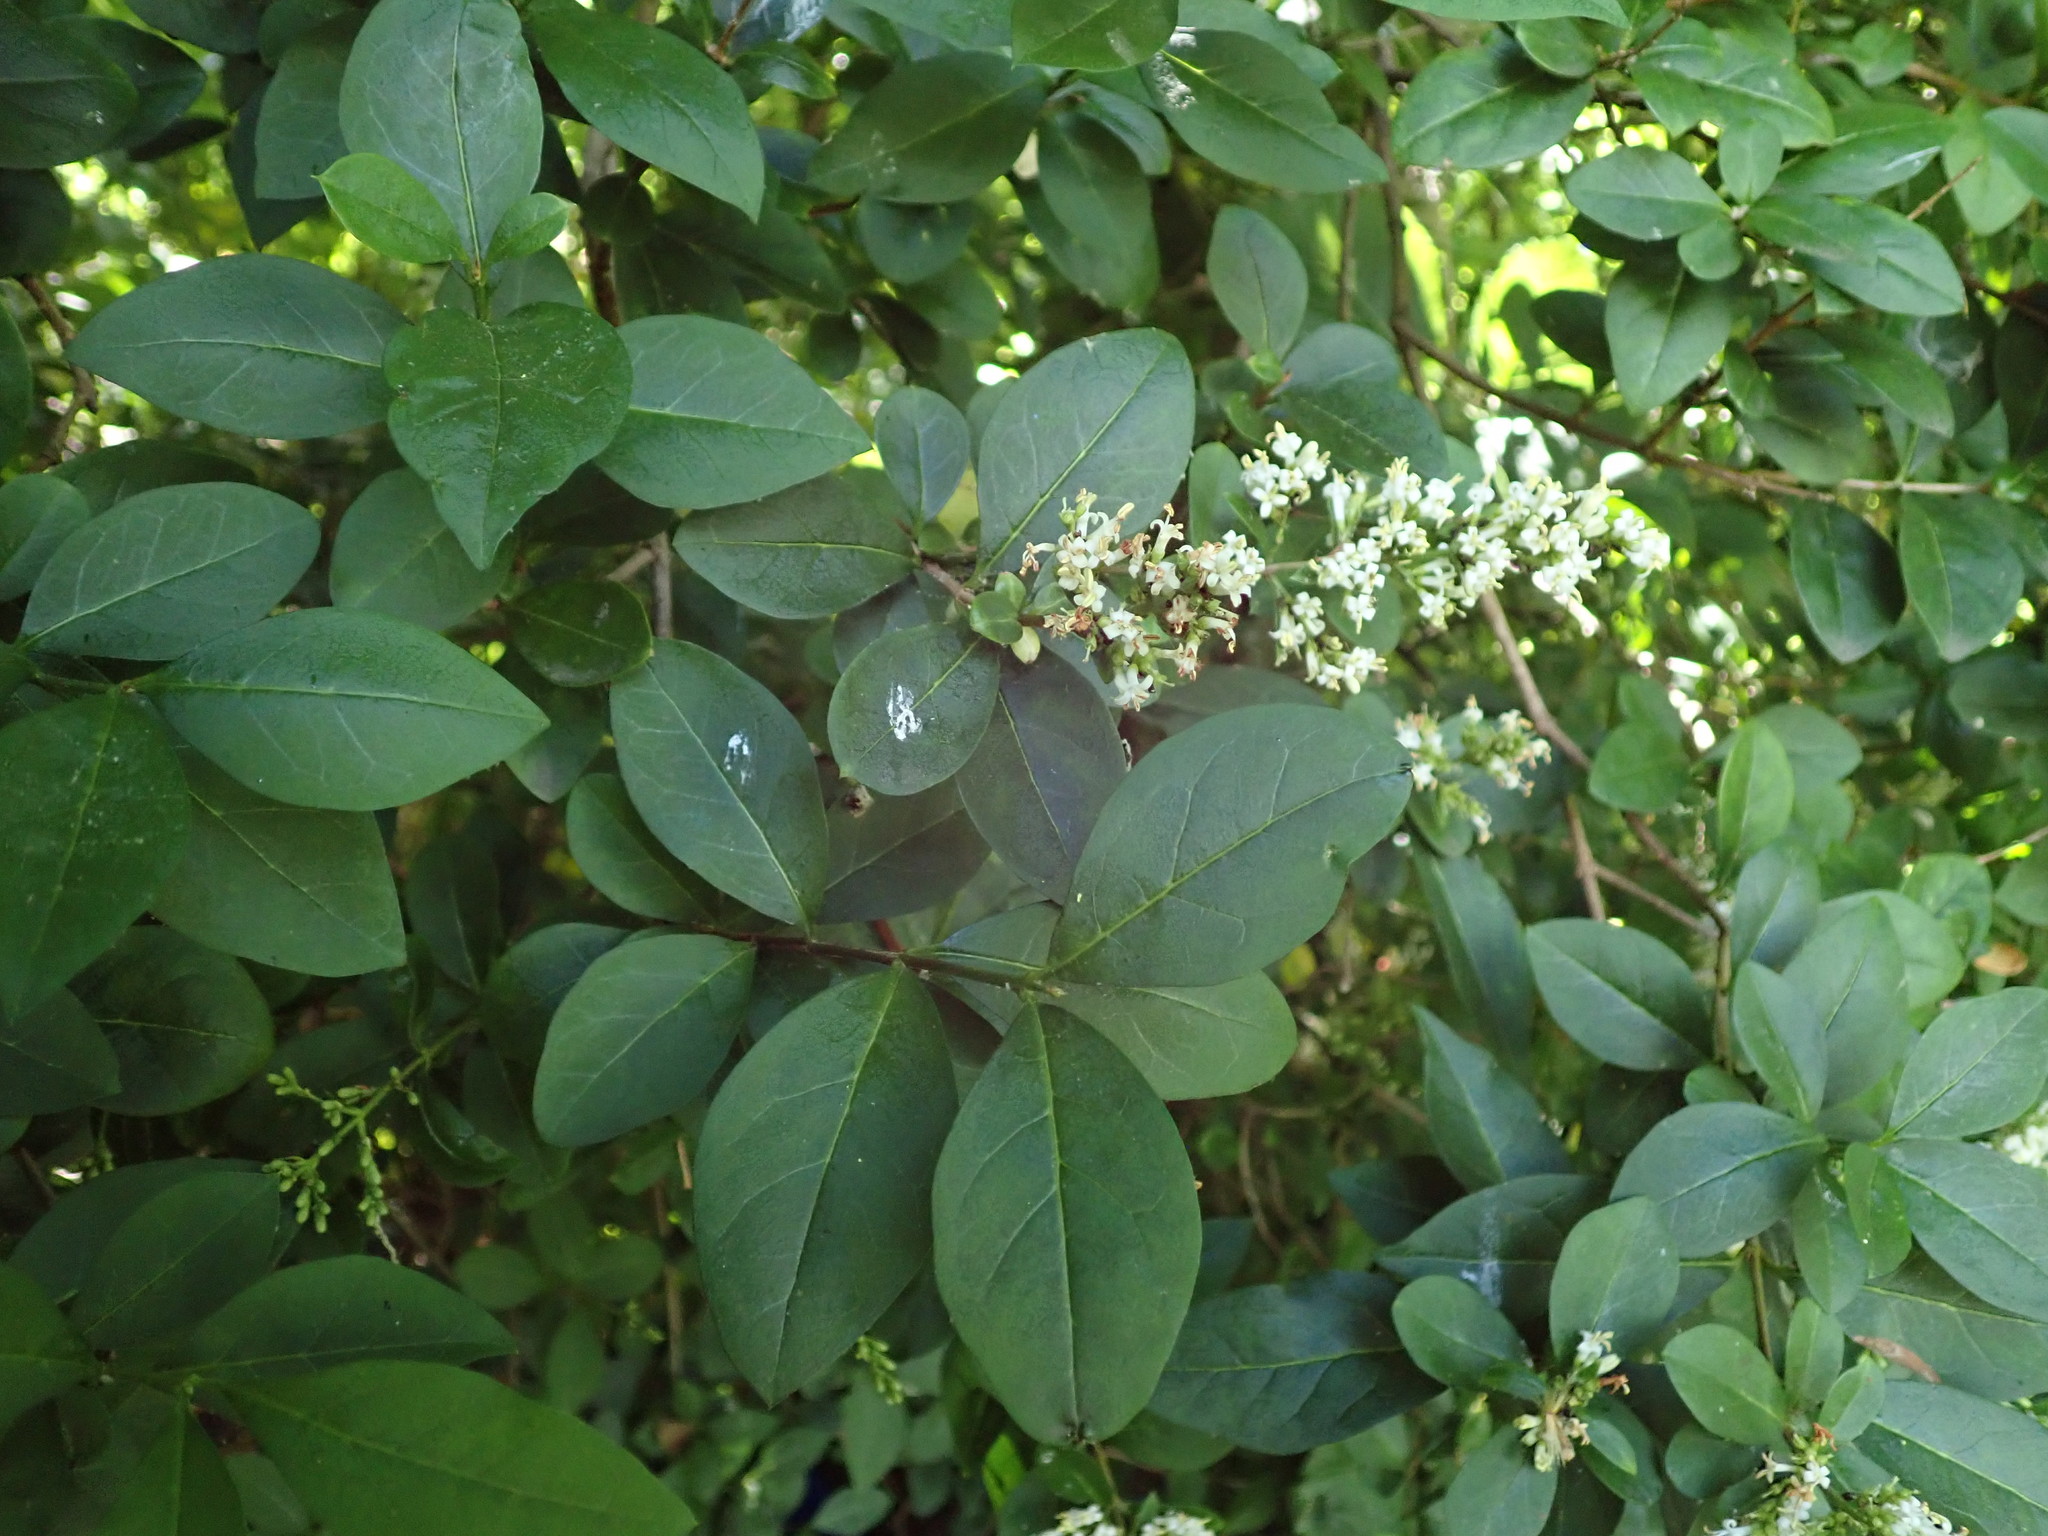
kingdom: Plantae
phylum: Tracheophyta
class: Magnoliopsida
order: Lamiales
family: Oleaceae
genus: Ligustrum
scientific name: Ligustrum ovalifolium
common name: California privet
